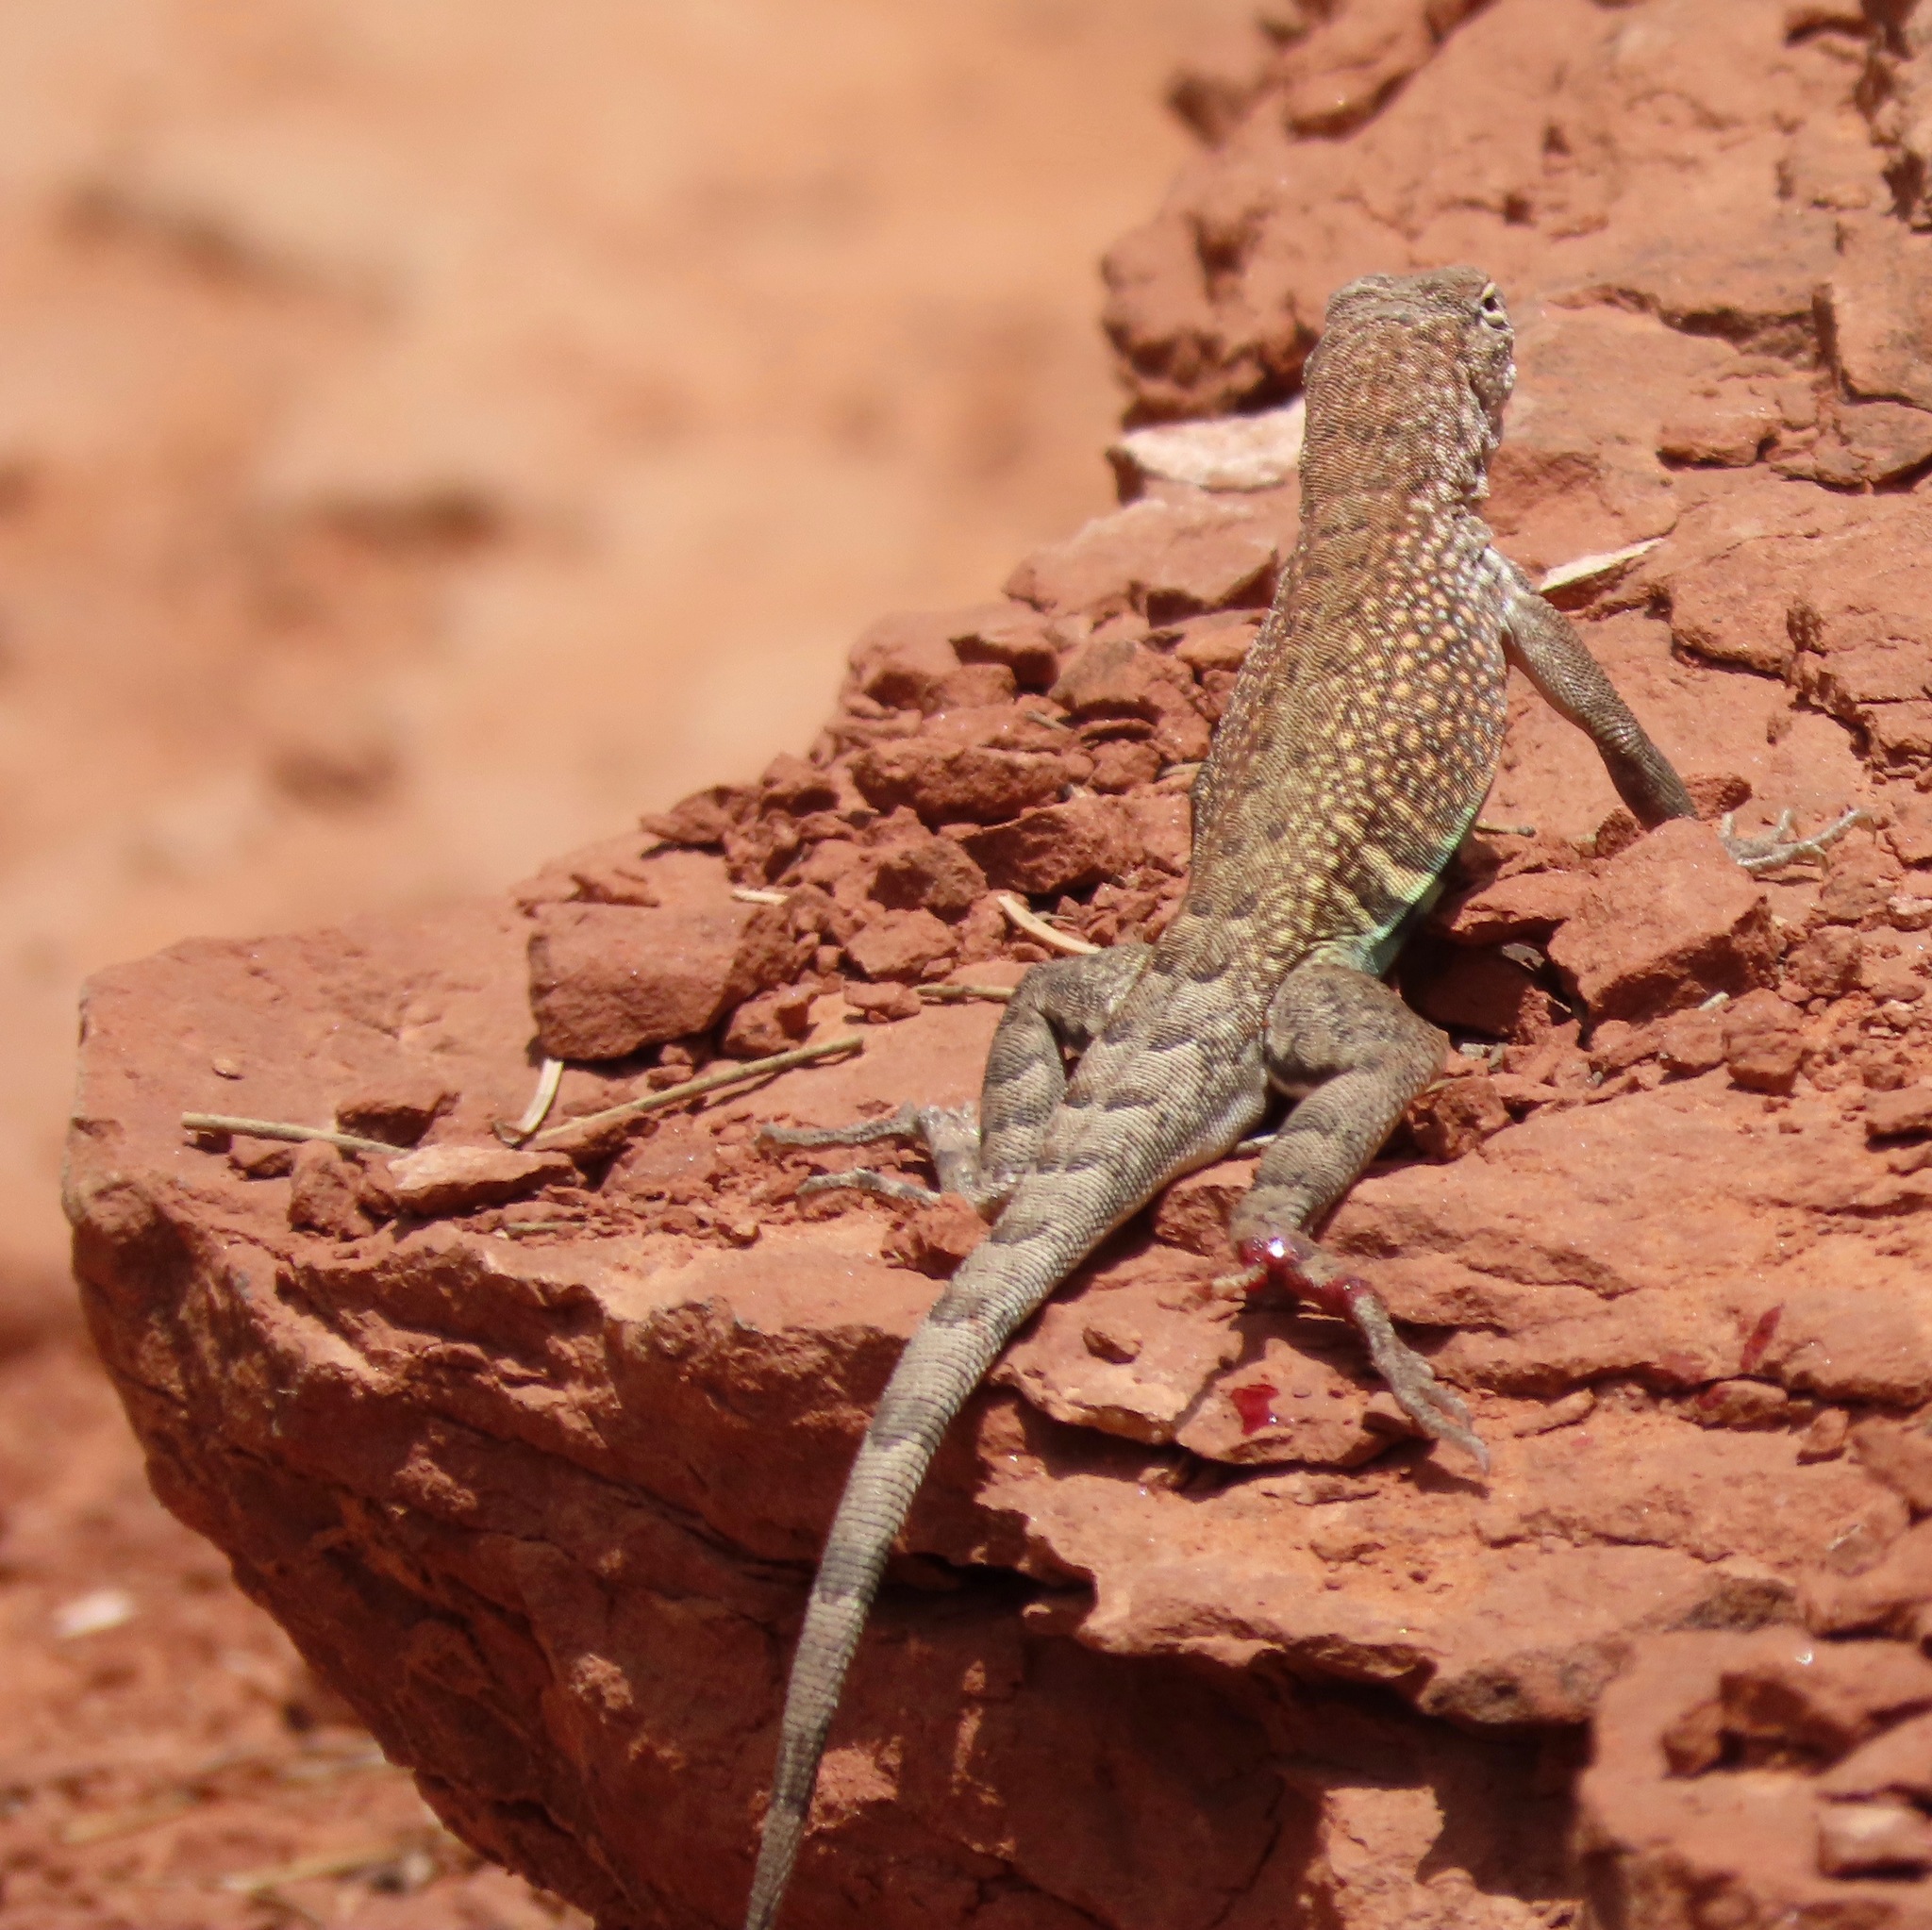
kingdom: Animalia
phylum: Chordata
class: Squamata
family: Phrynosomatidae
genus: Cophosaurus
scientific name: Cophosaurus texanus
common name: Greater earless lizard
